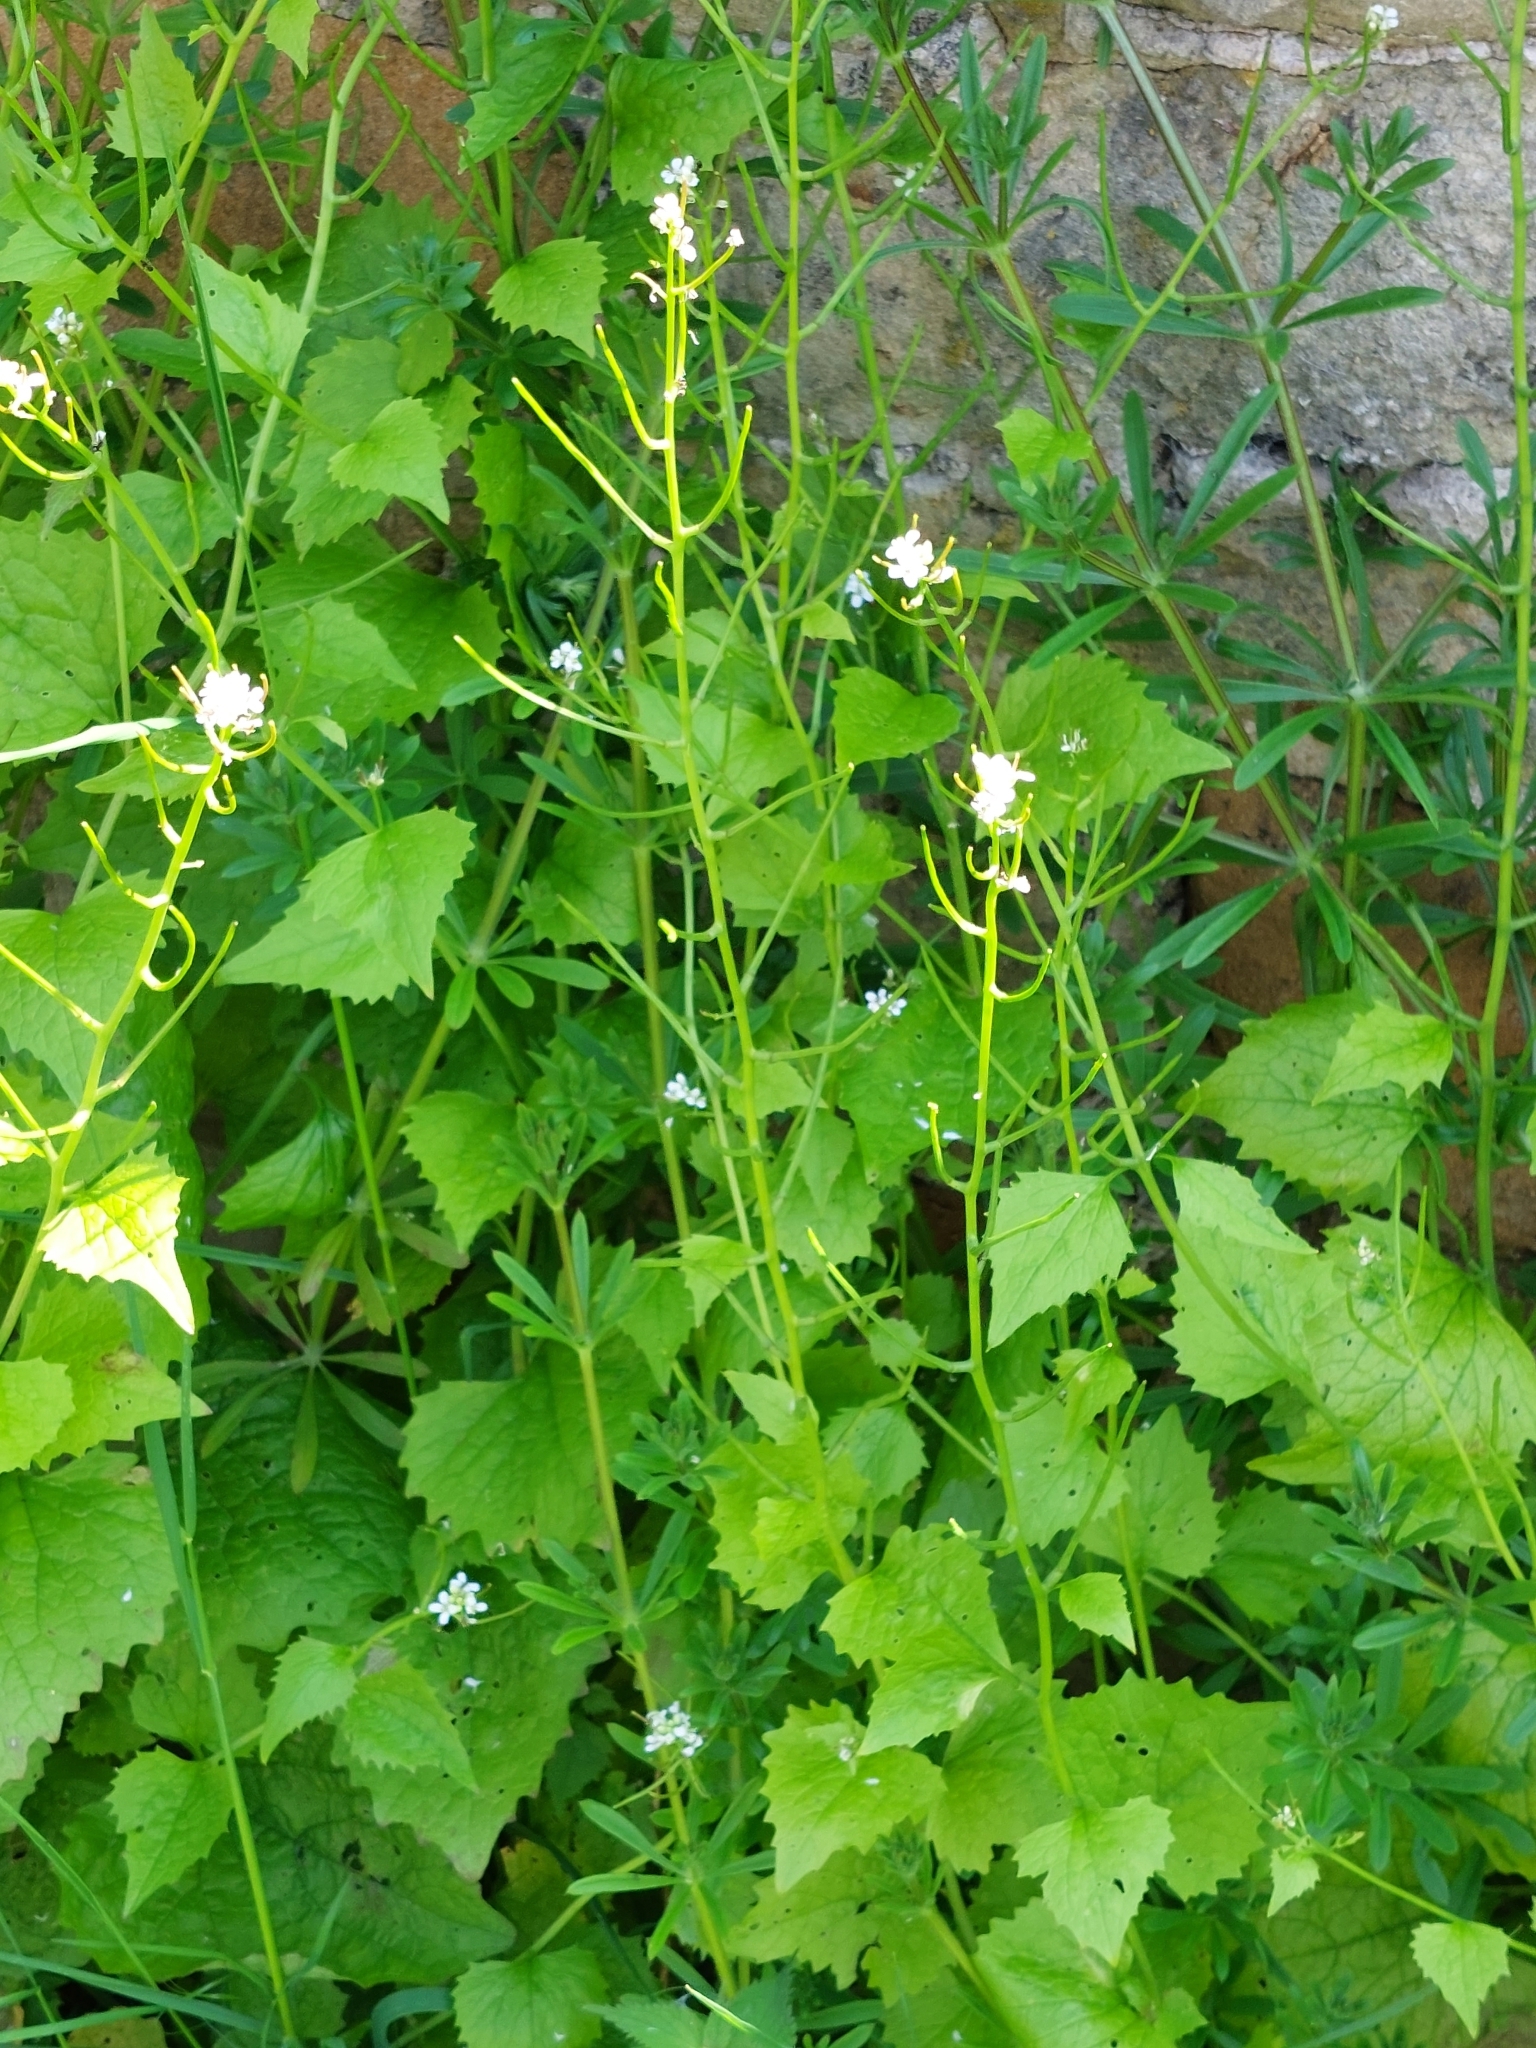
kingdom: Plantae
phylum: Tracheophyta
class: Magnoliopsida
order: Brassicales
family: Brassicaceae
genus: Alliaria
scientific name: Alliaria petiolata
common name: Garlic mustard
